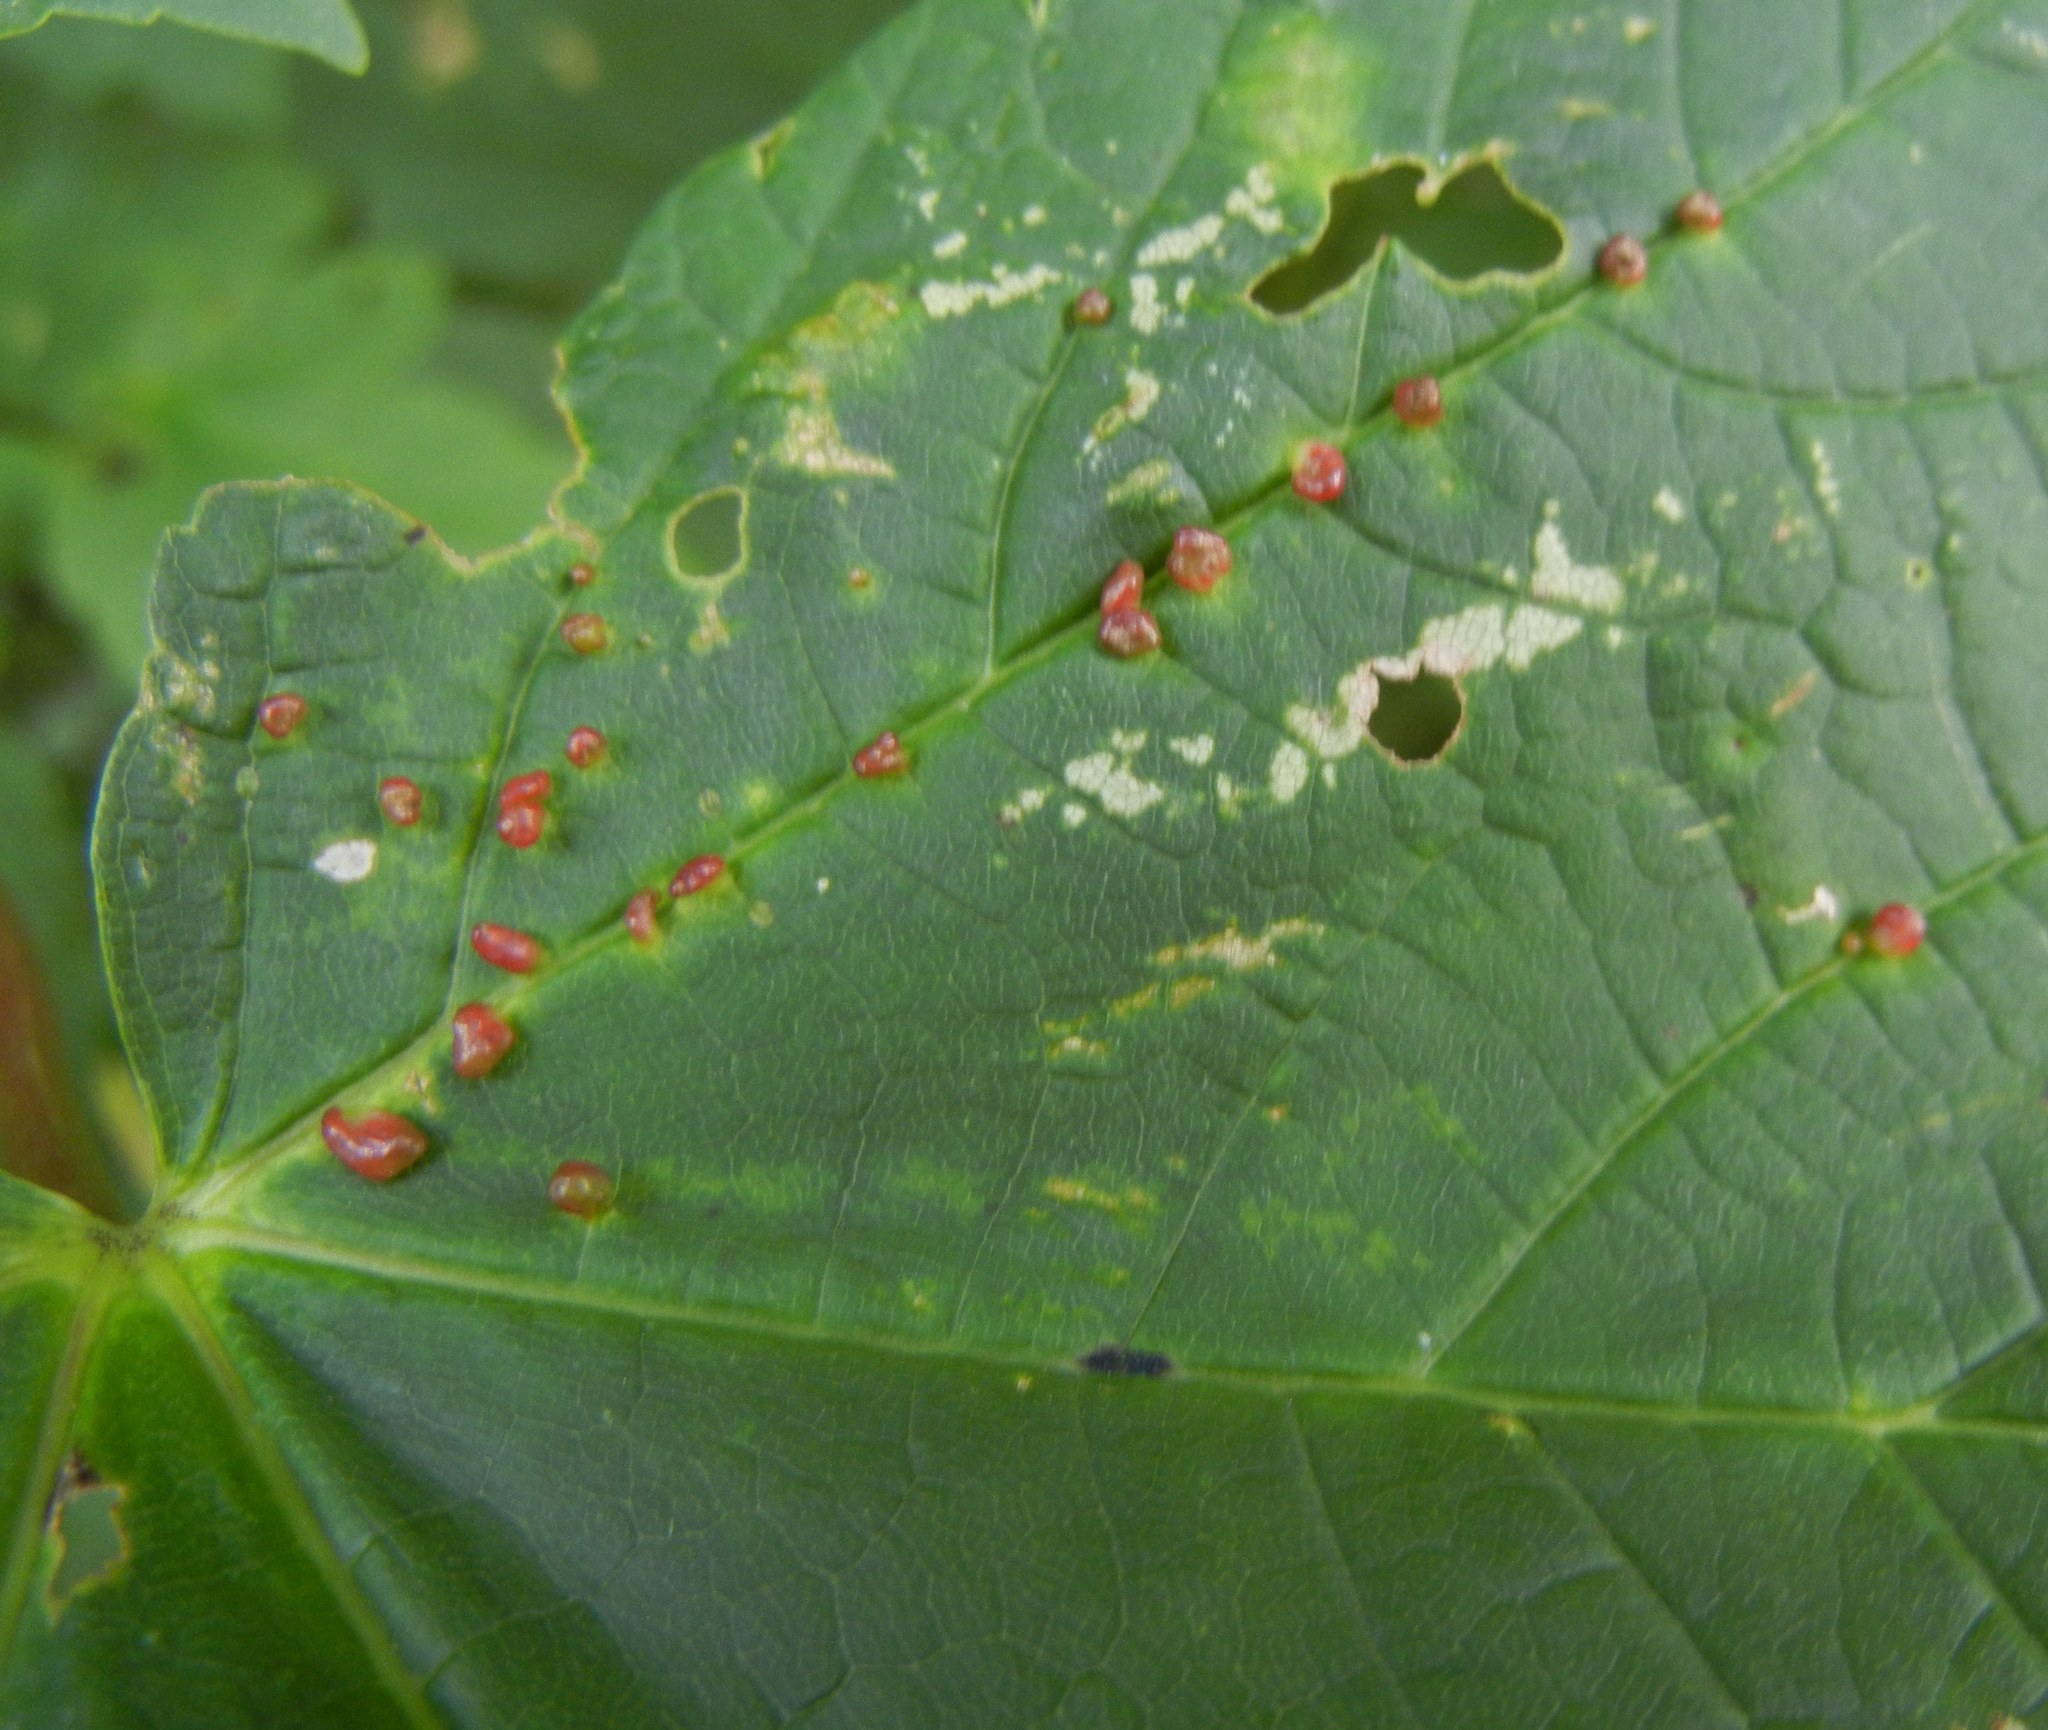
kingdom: Animalia
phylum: Arthropoda
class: Arachnida
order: Trombidiformes
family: Eriophyidae
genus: Aceria
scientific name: Aceria cephaloneus
